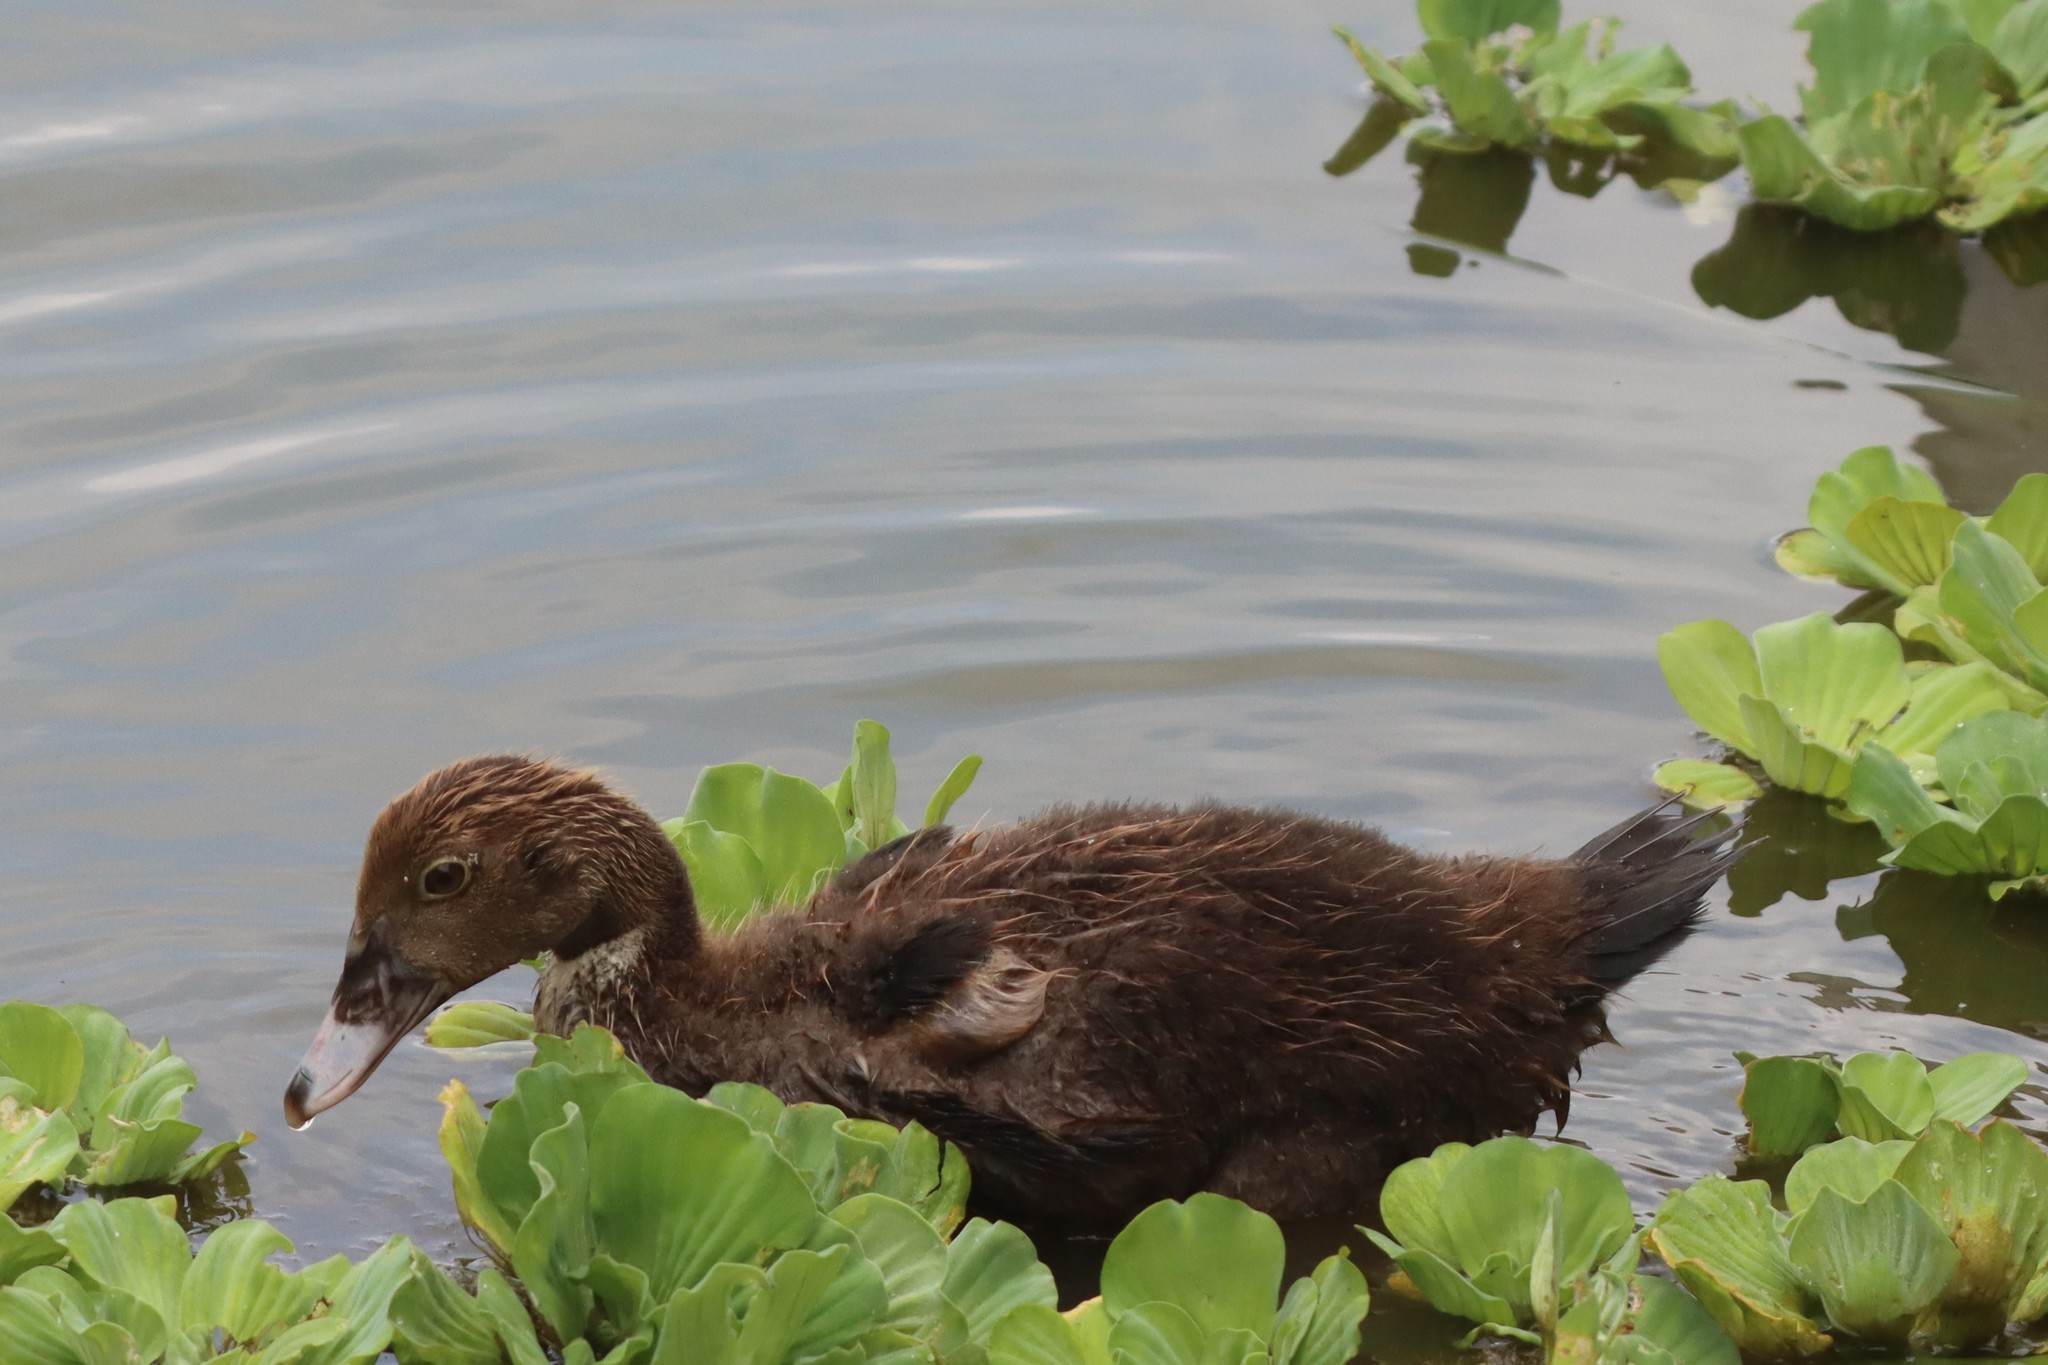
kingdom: Animalia
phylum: Chordata
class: Aves
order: Anseriformes
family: Anatidae
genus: Cairina
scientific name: Cairina moschata
